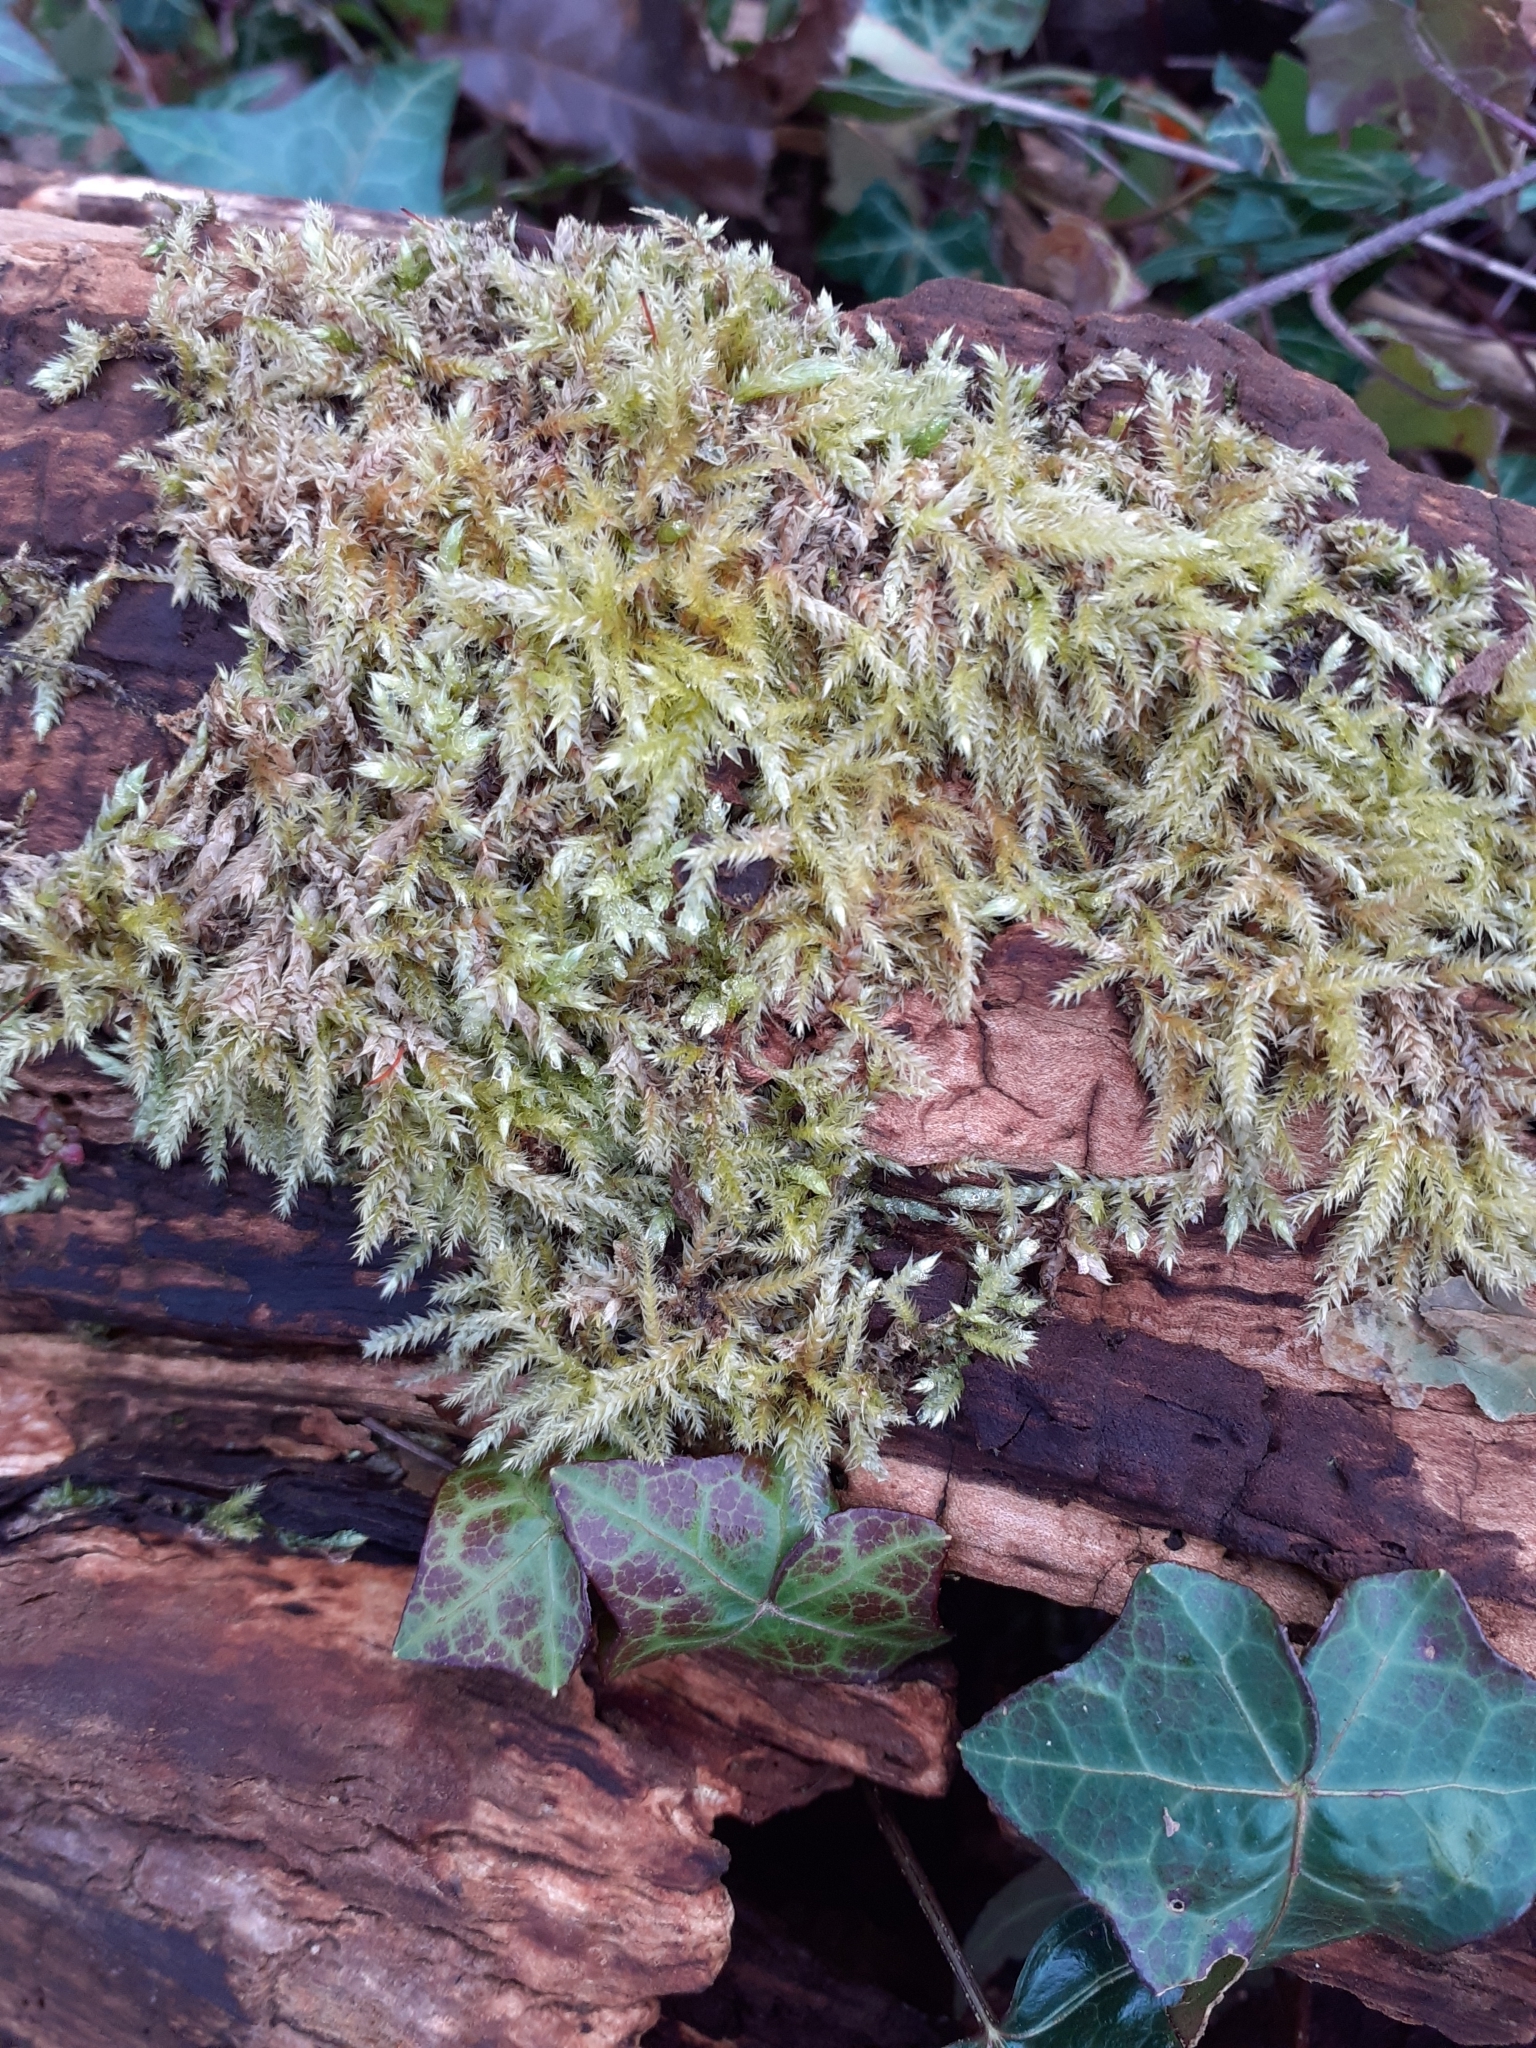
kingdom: Plantae
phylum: Bryophyta
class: Bryopsida
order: Hypnales
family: Brachytheciaceae
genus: Brachythecium
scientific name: Brachythecium rutabulum
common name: Rough-stalked feather-moss
